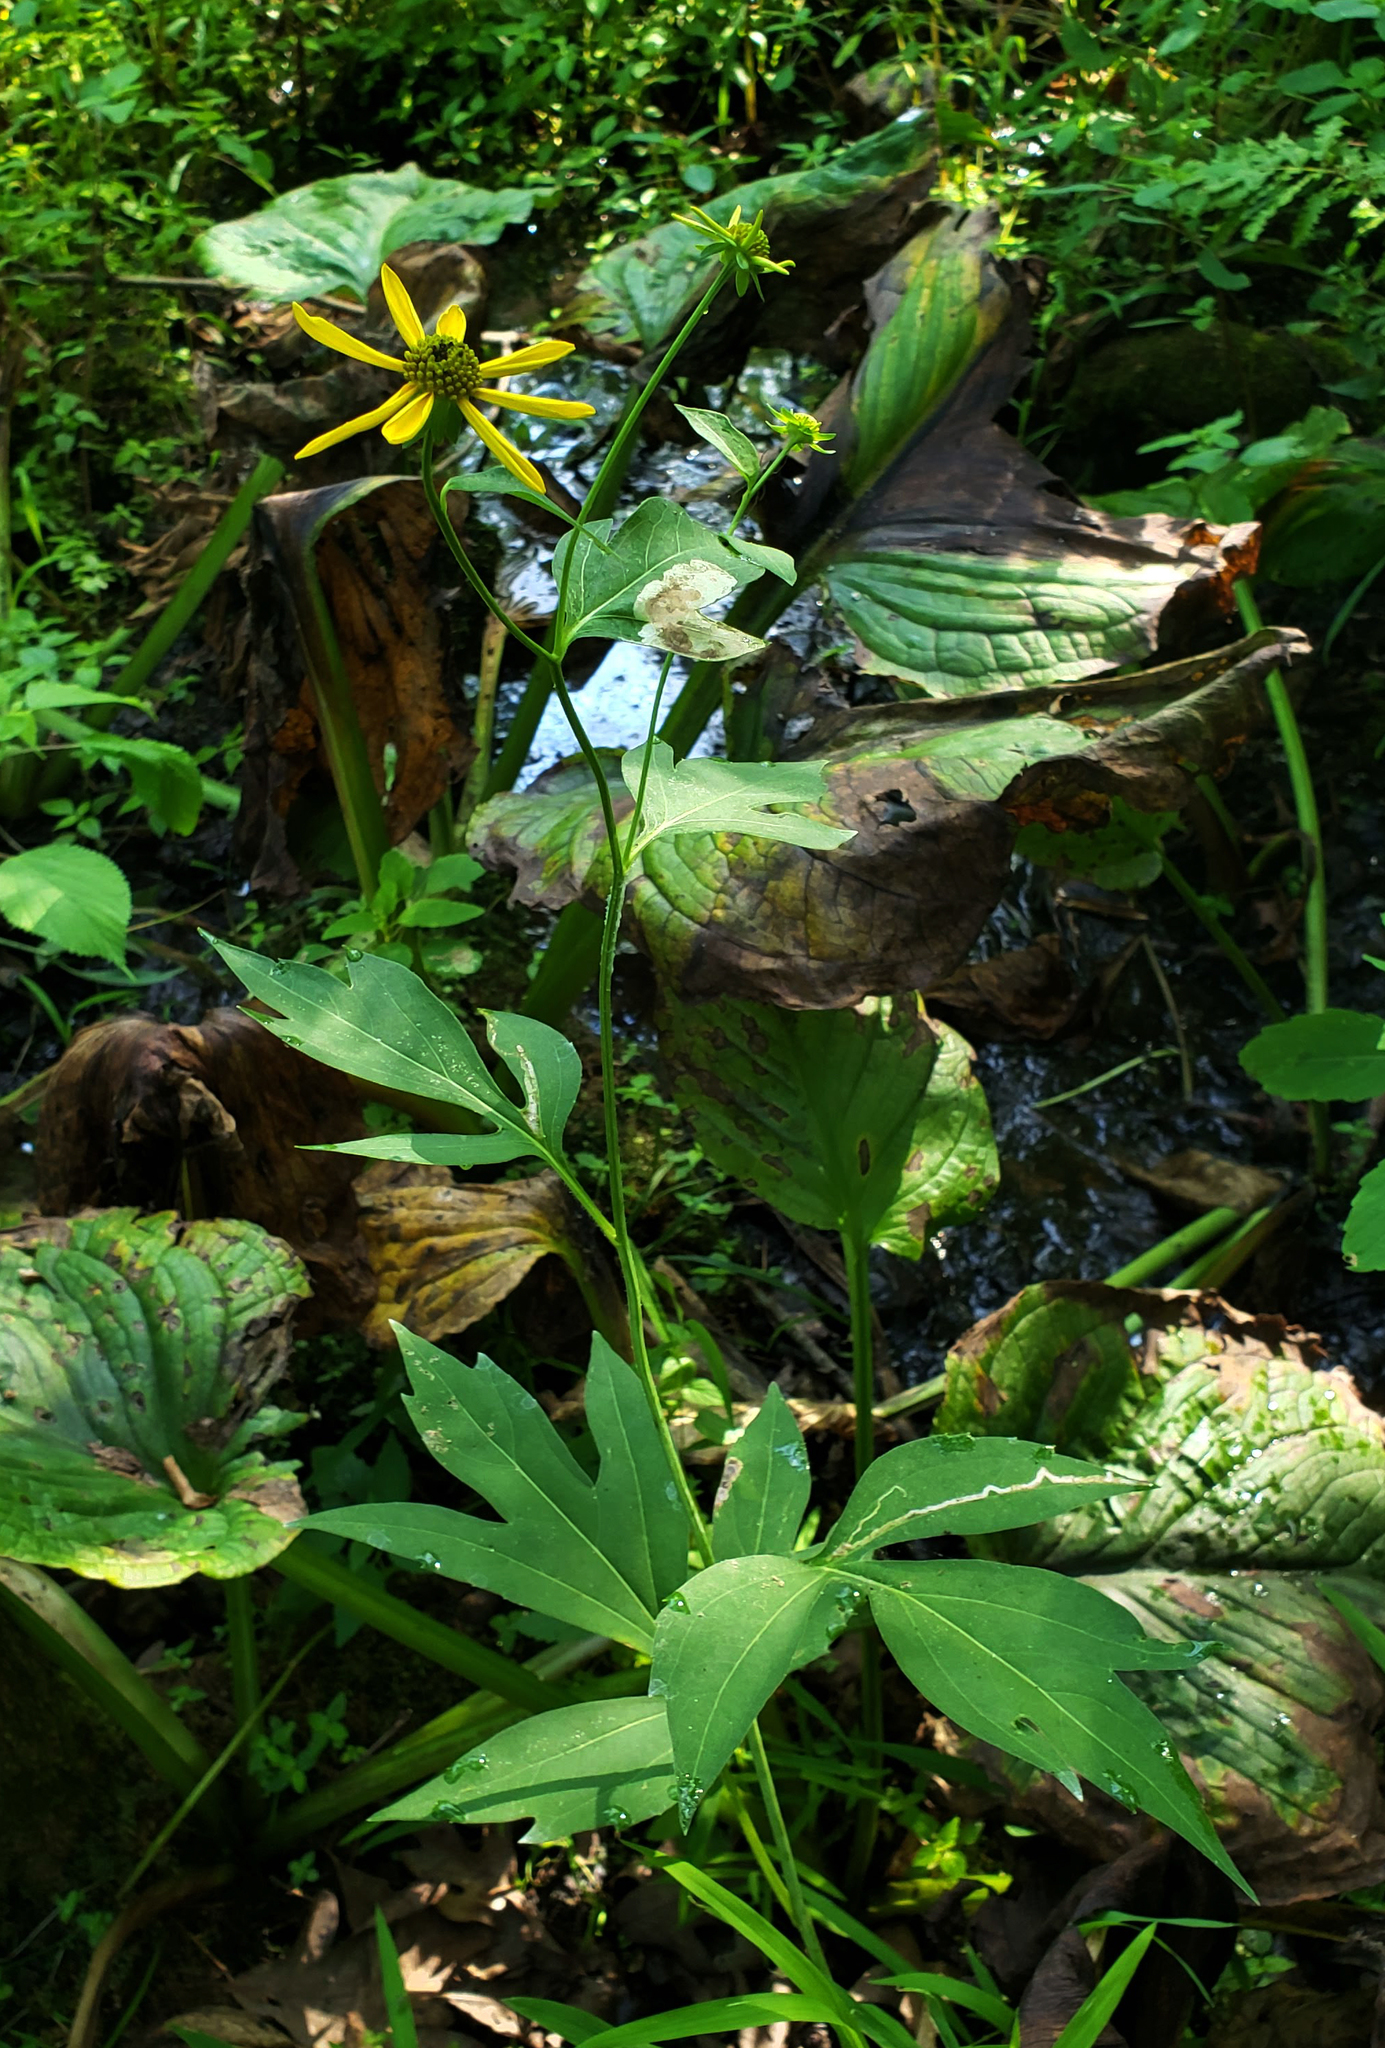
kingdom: Plantae
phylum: Tracheophyta
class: Magnoliopsida
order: Asterales
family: Asteraceae
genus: Rudbeckia
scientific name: Rudbeckia laciniata
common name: Coneflower
